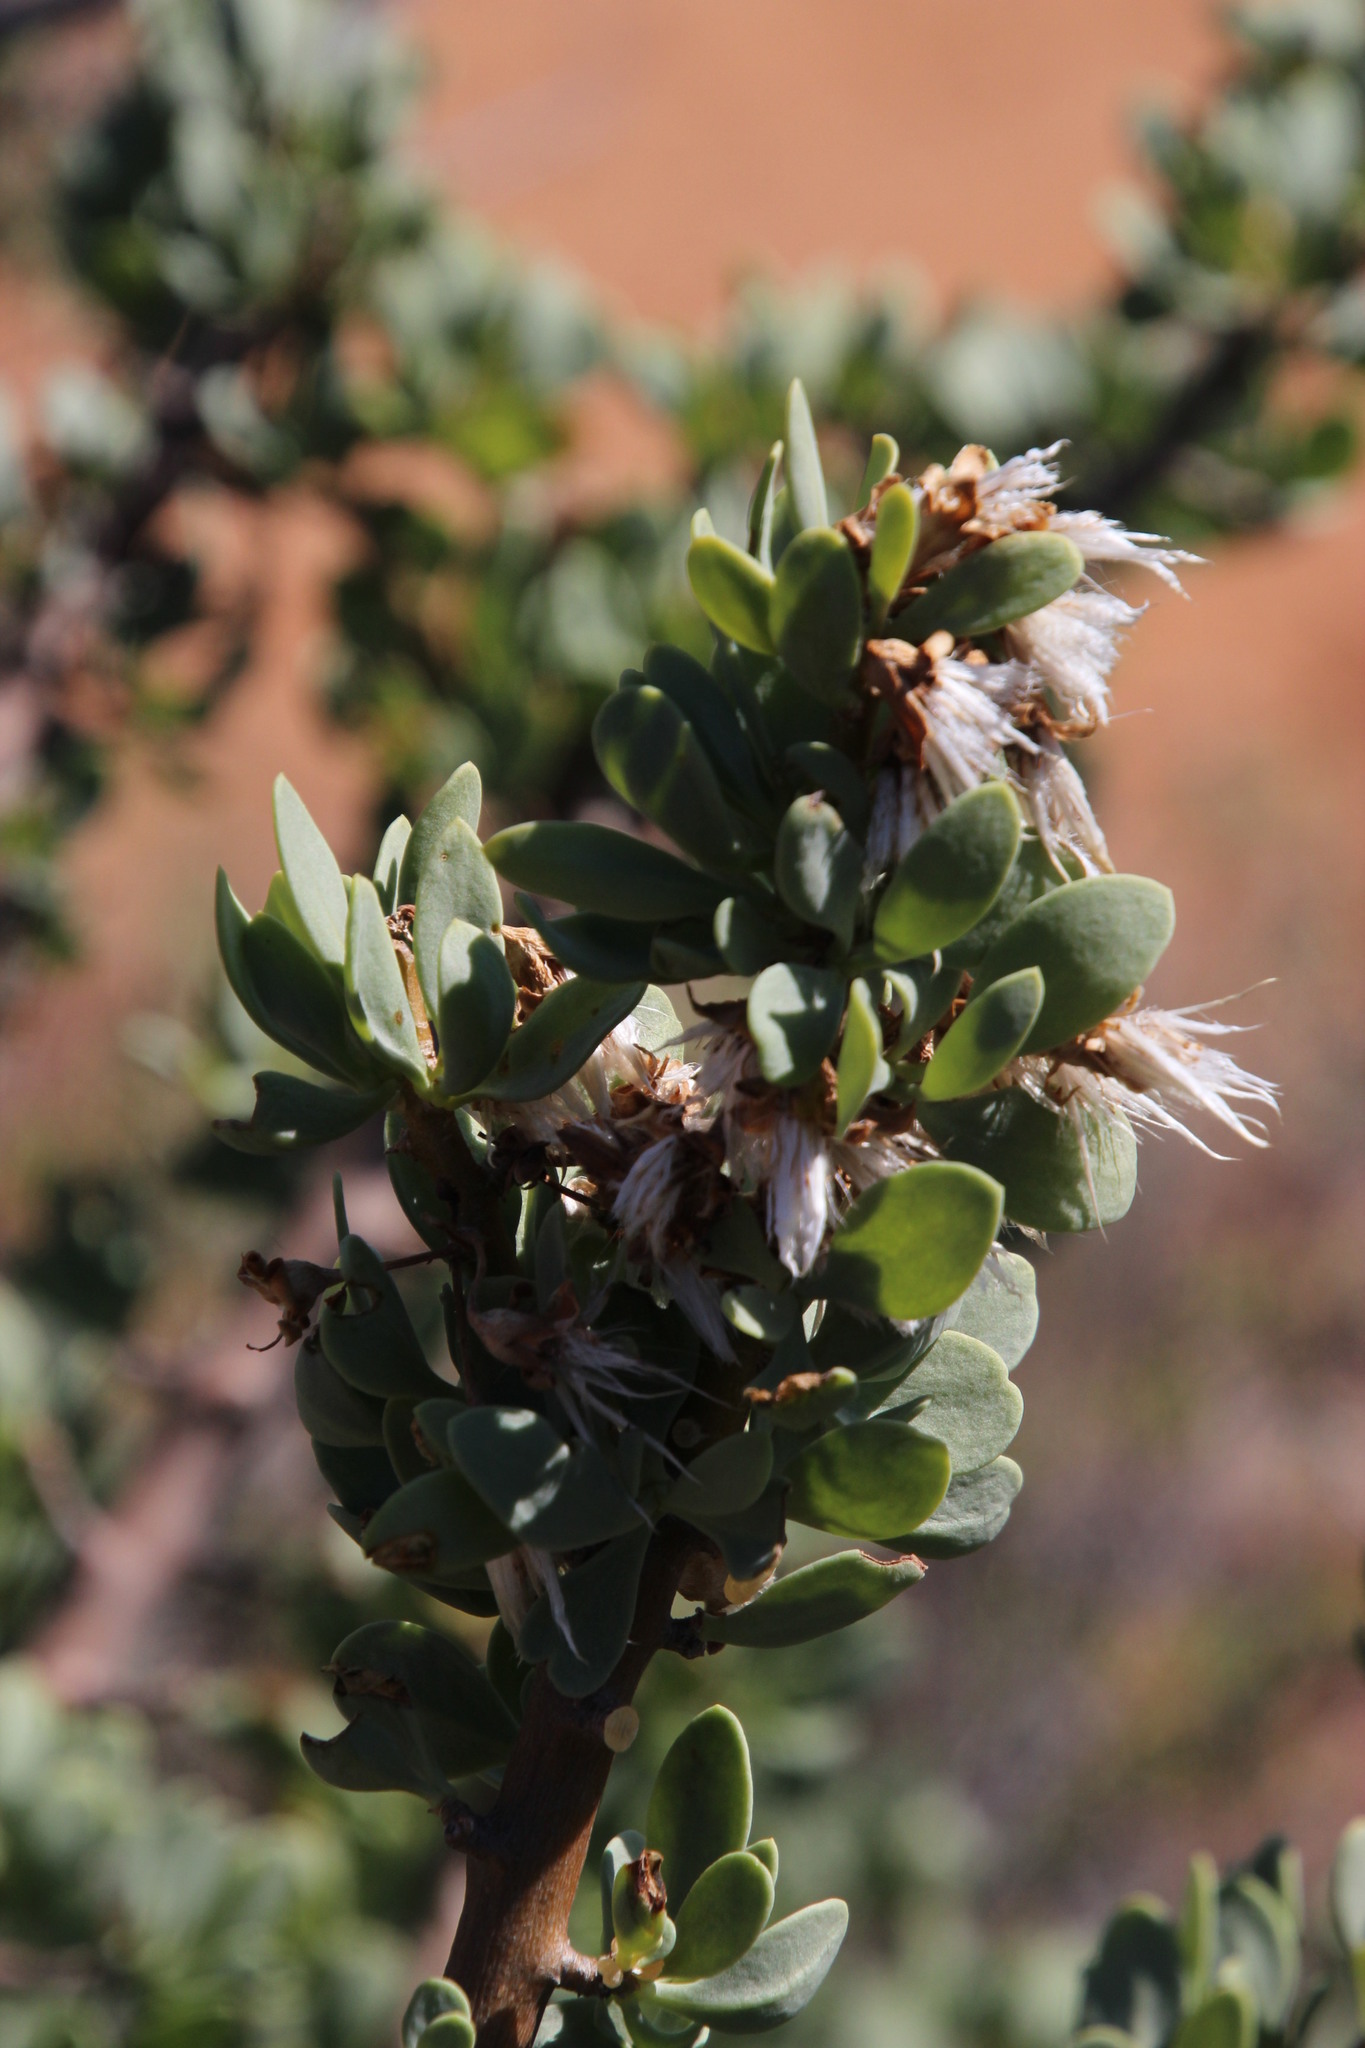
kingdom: Plantae
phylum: Tracheophyta
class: Magnoliopsida
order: Asterales
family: Asteraceae
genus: Othonna
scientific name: Othonna cerarioides
